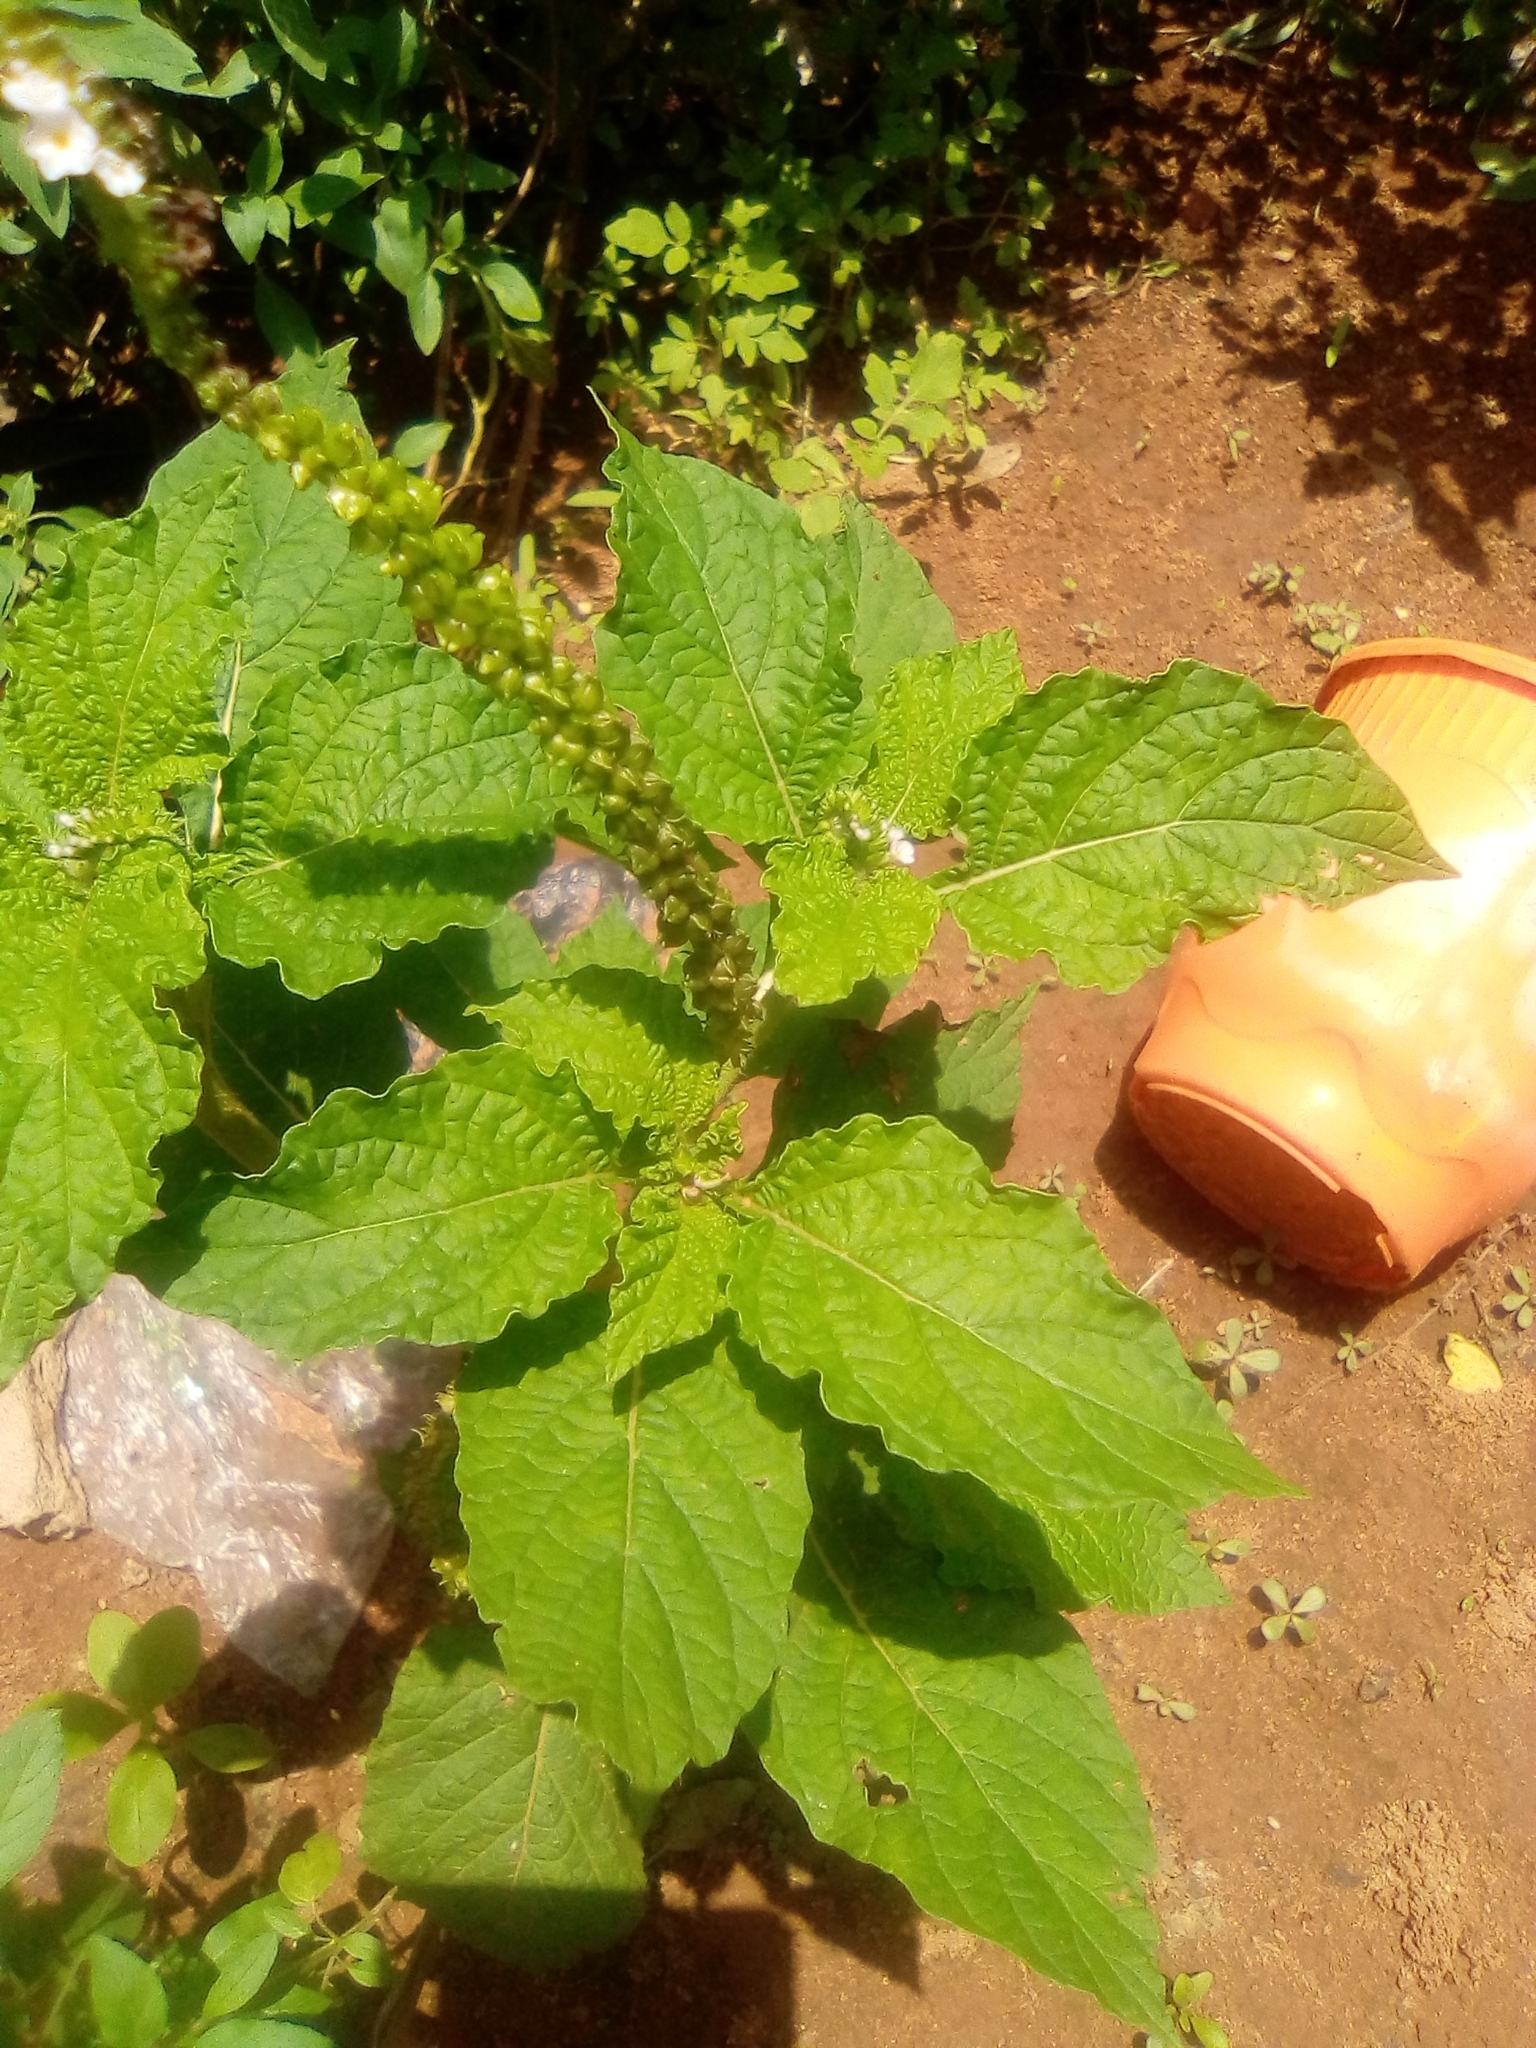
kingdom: Plantae
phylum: Tracheophyta
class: Magnoliopsida
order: Boraginales
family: Heliotropiaceae
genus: Heliotropium
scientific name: Heliotropium indicum
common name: Indian heliotrope
